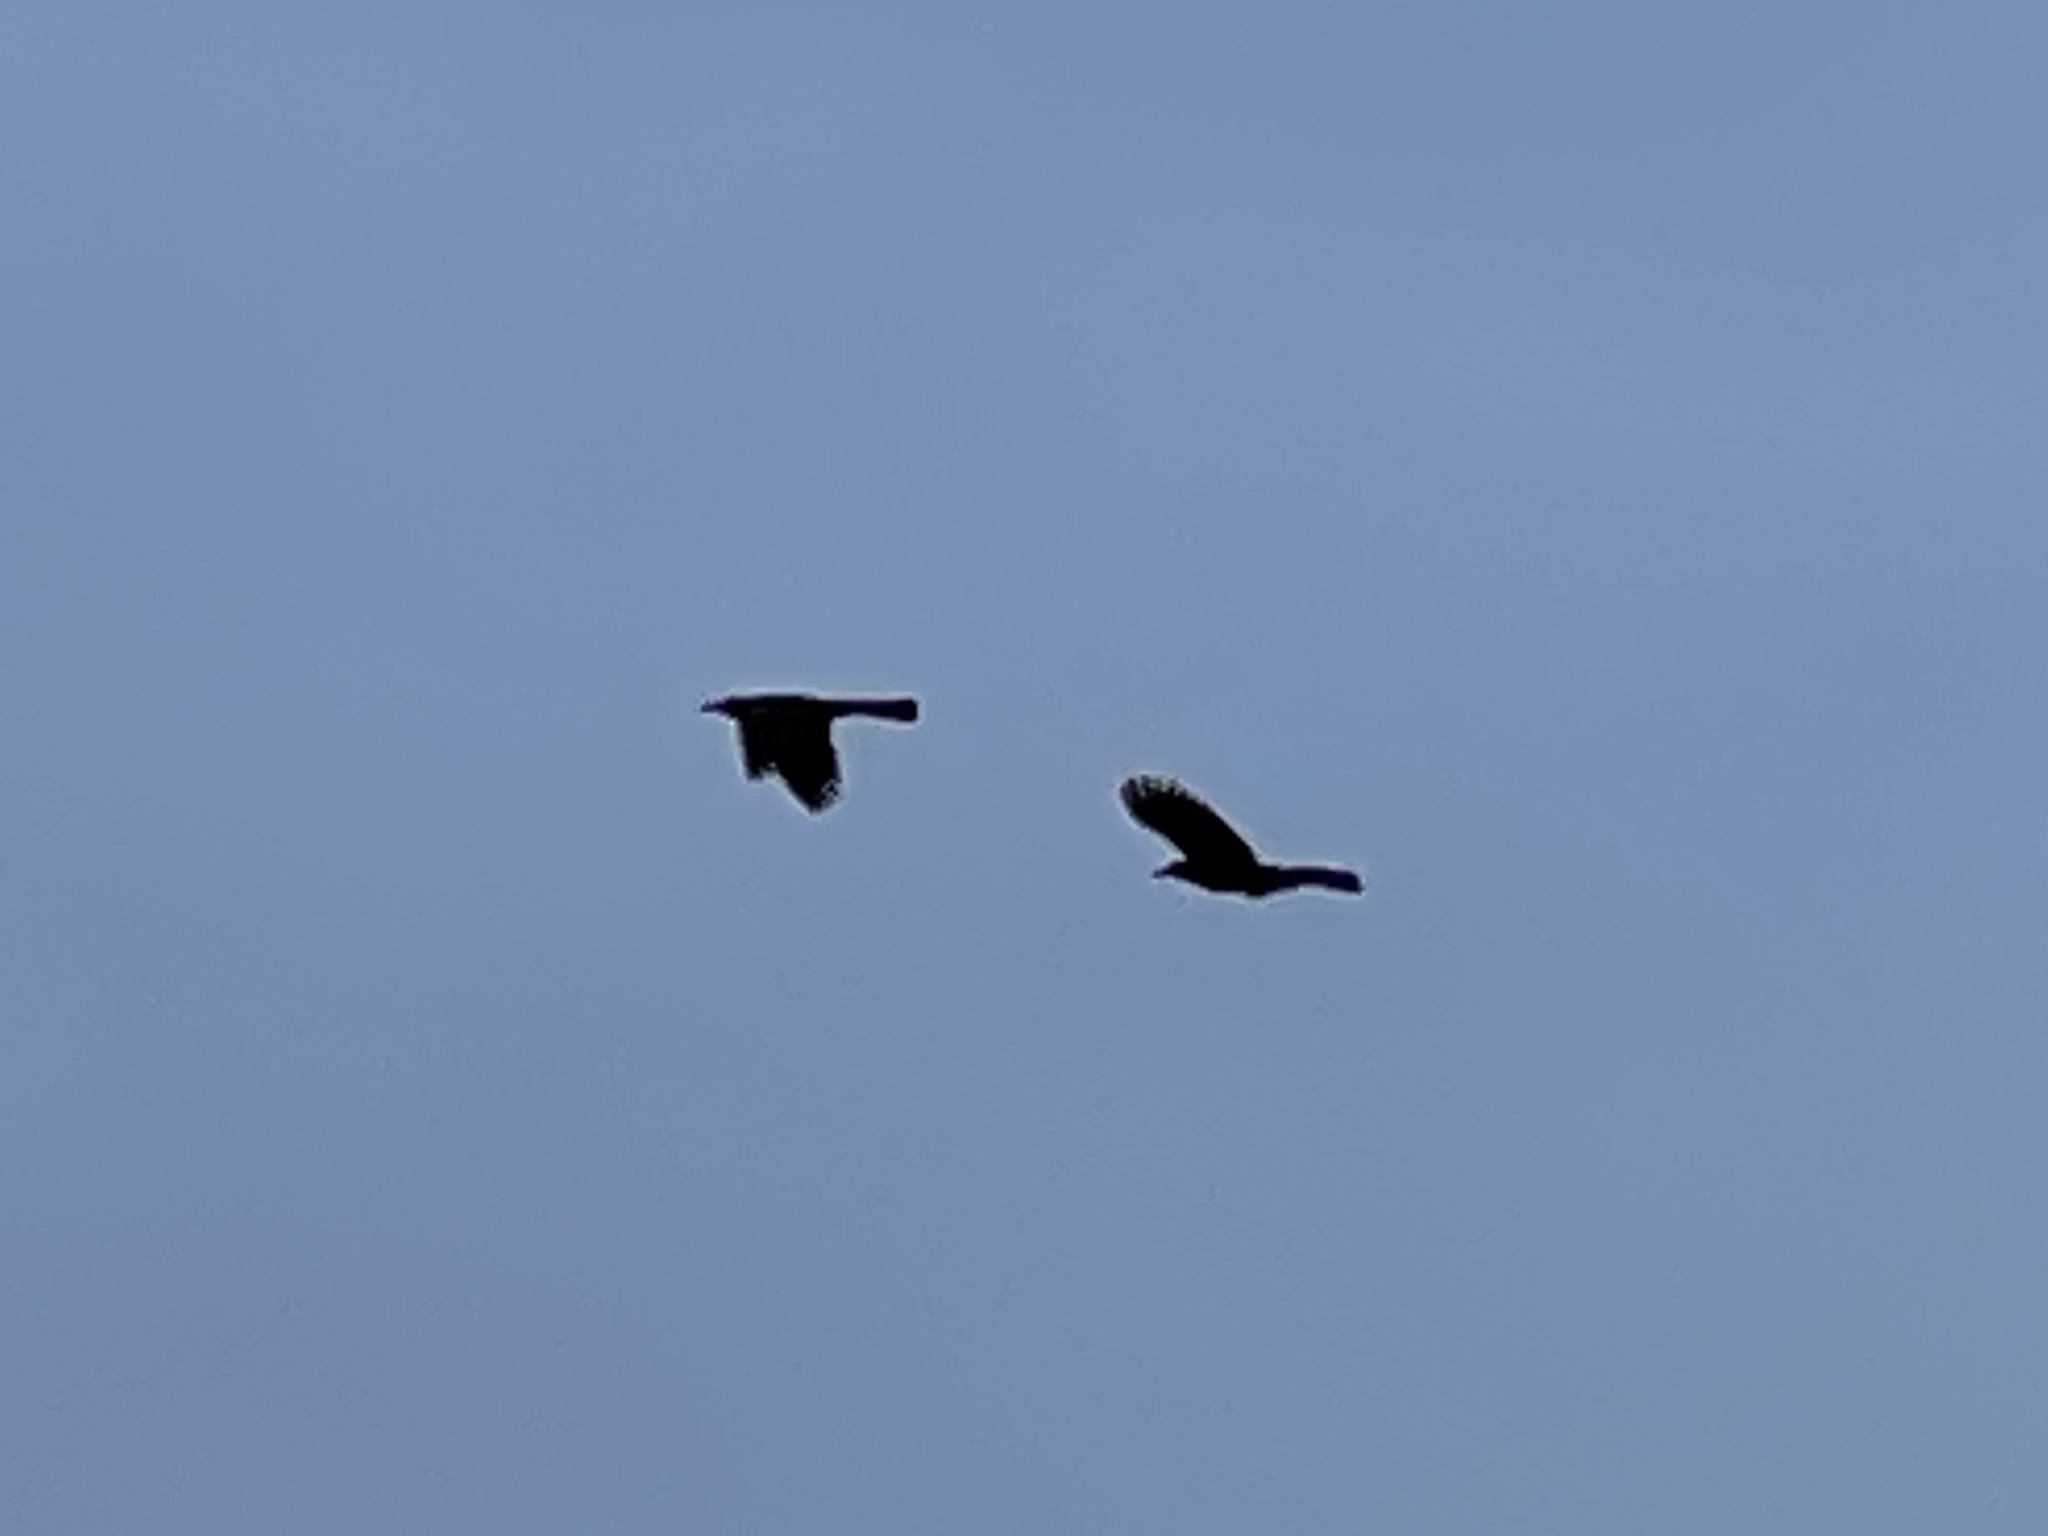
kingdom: Animalia
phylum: Chordata
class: Aves
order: Passeriformes
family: Icteridae
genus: Quiscalus
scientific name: Quiscalus mexicanus
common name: Great-tailed grackle
